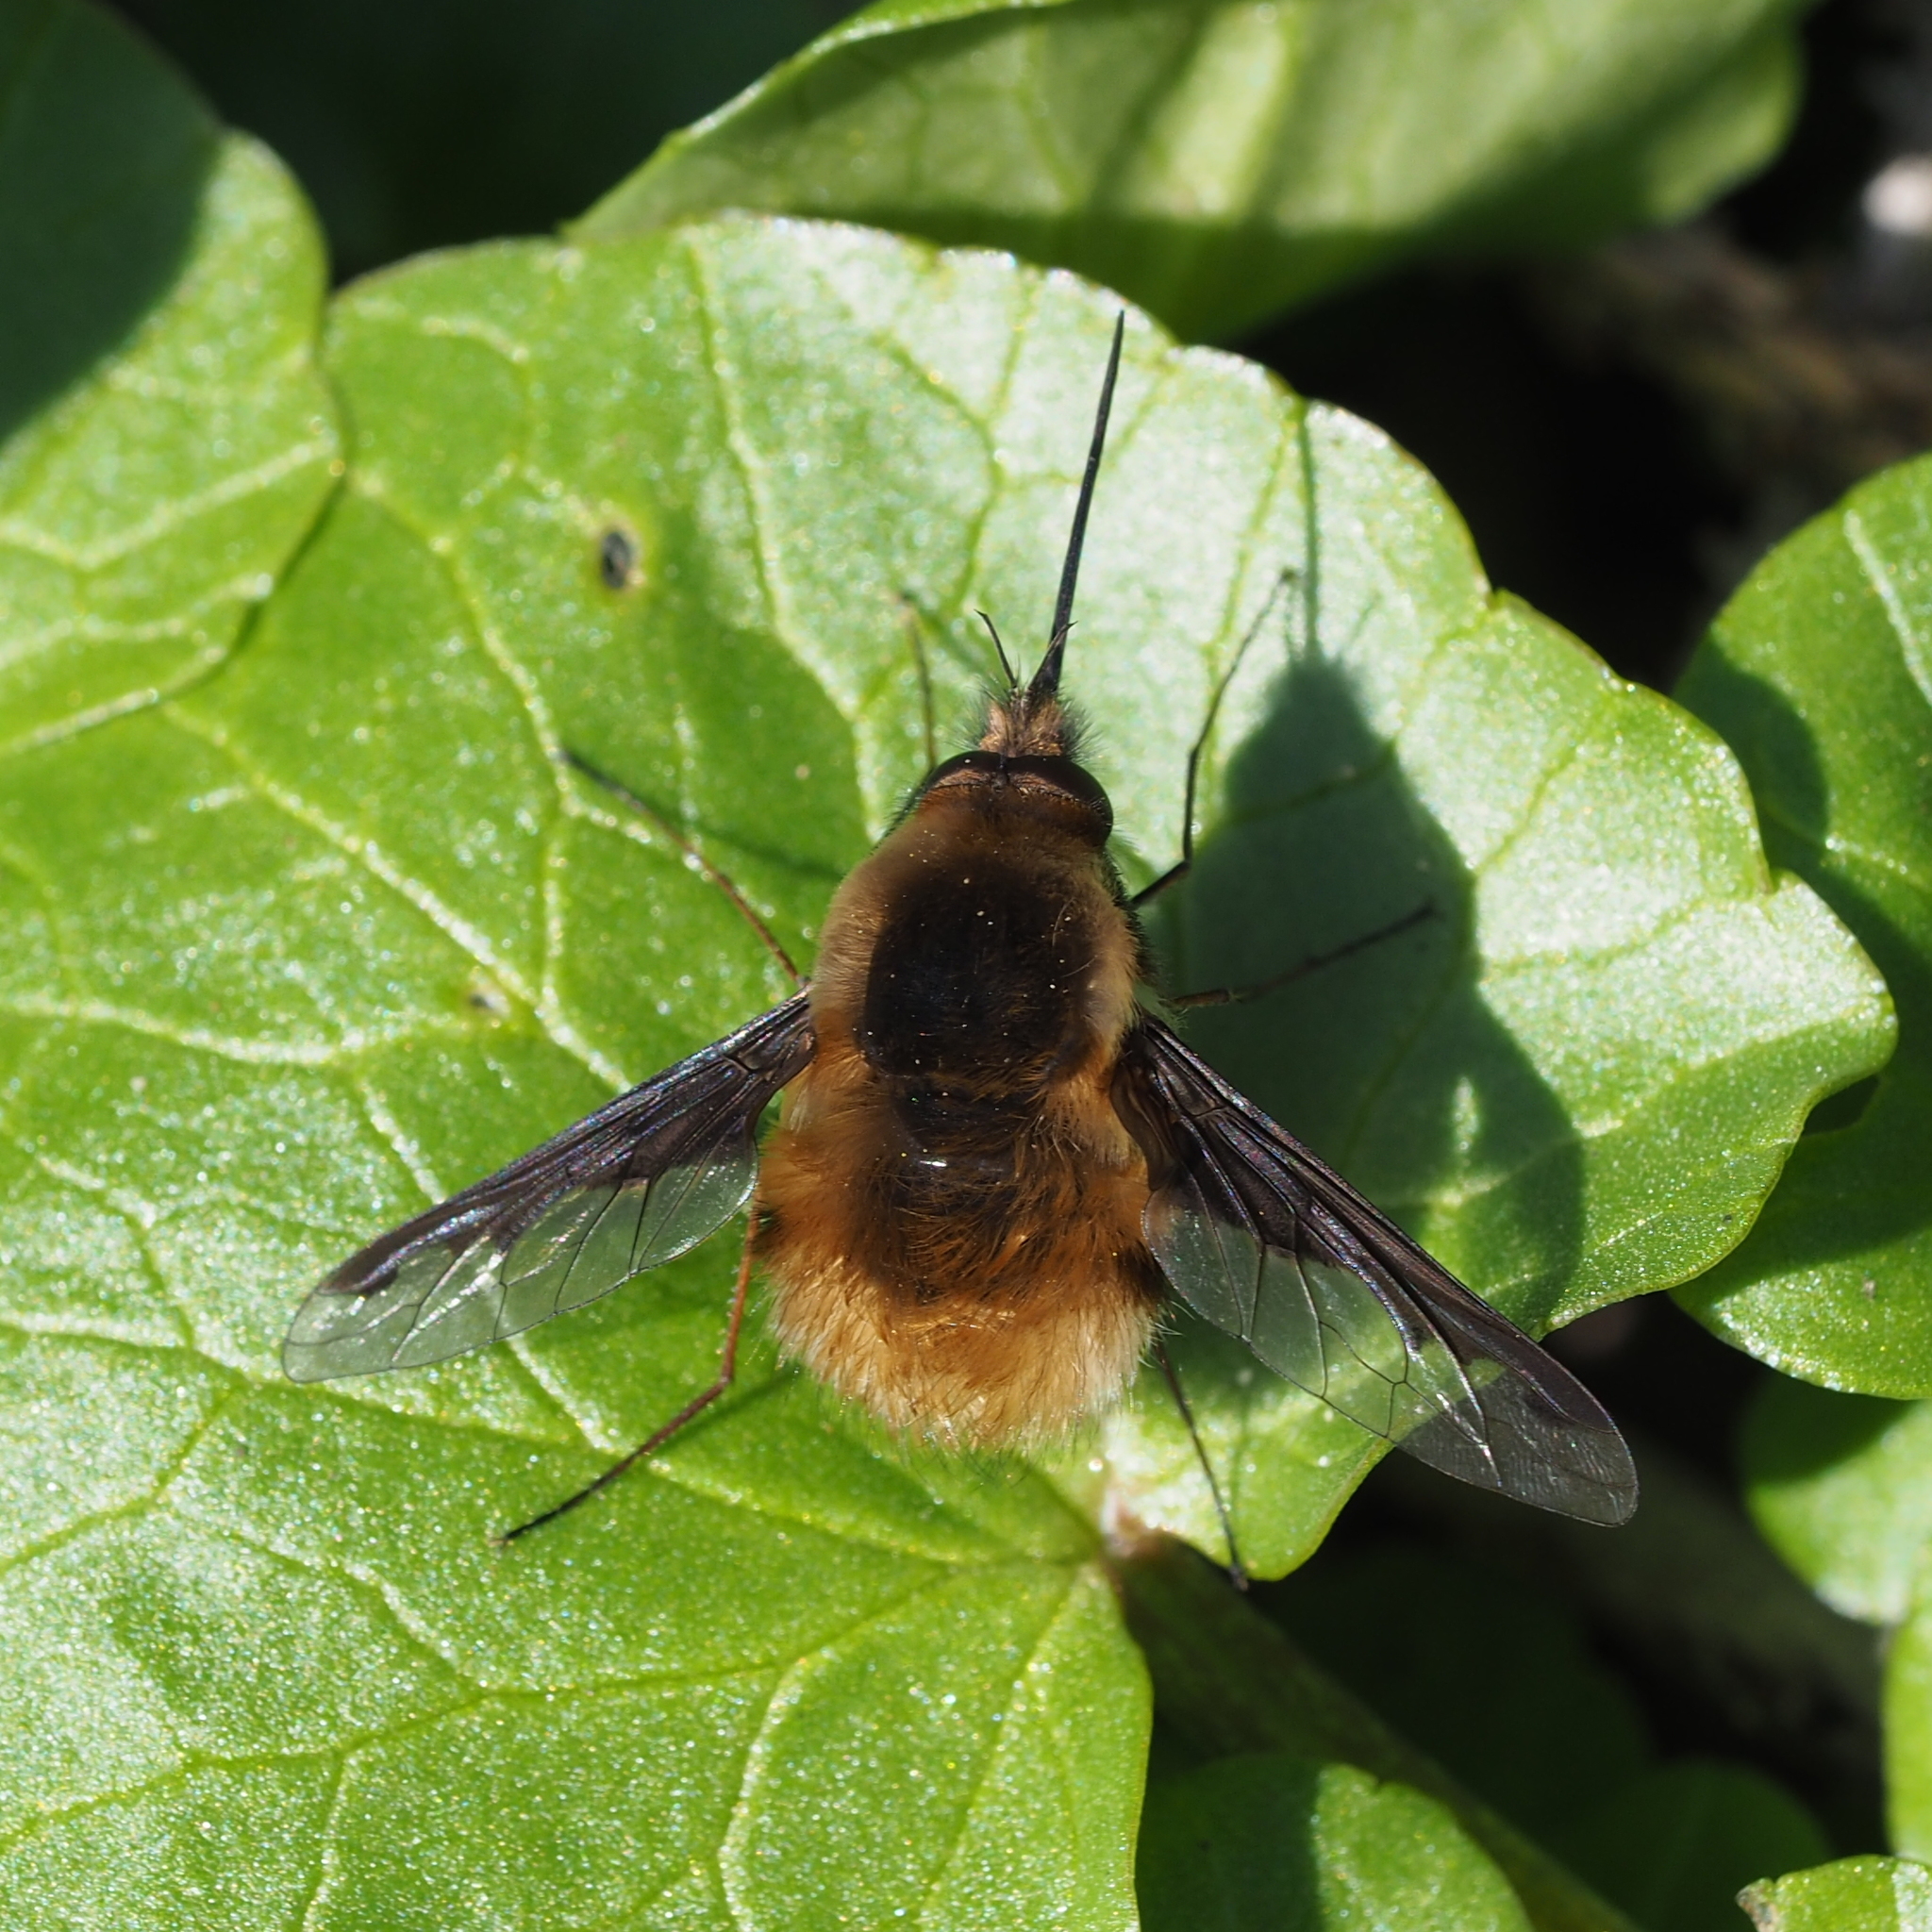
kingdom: Animalia
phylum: Arthropoda
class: Insecta
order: Diptera
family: Bombyliidae
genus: Bombylius
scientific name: Bombylius major
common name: Bee fly
